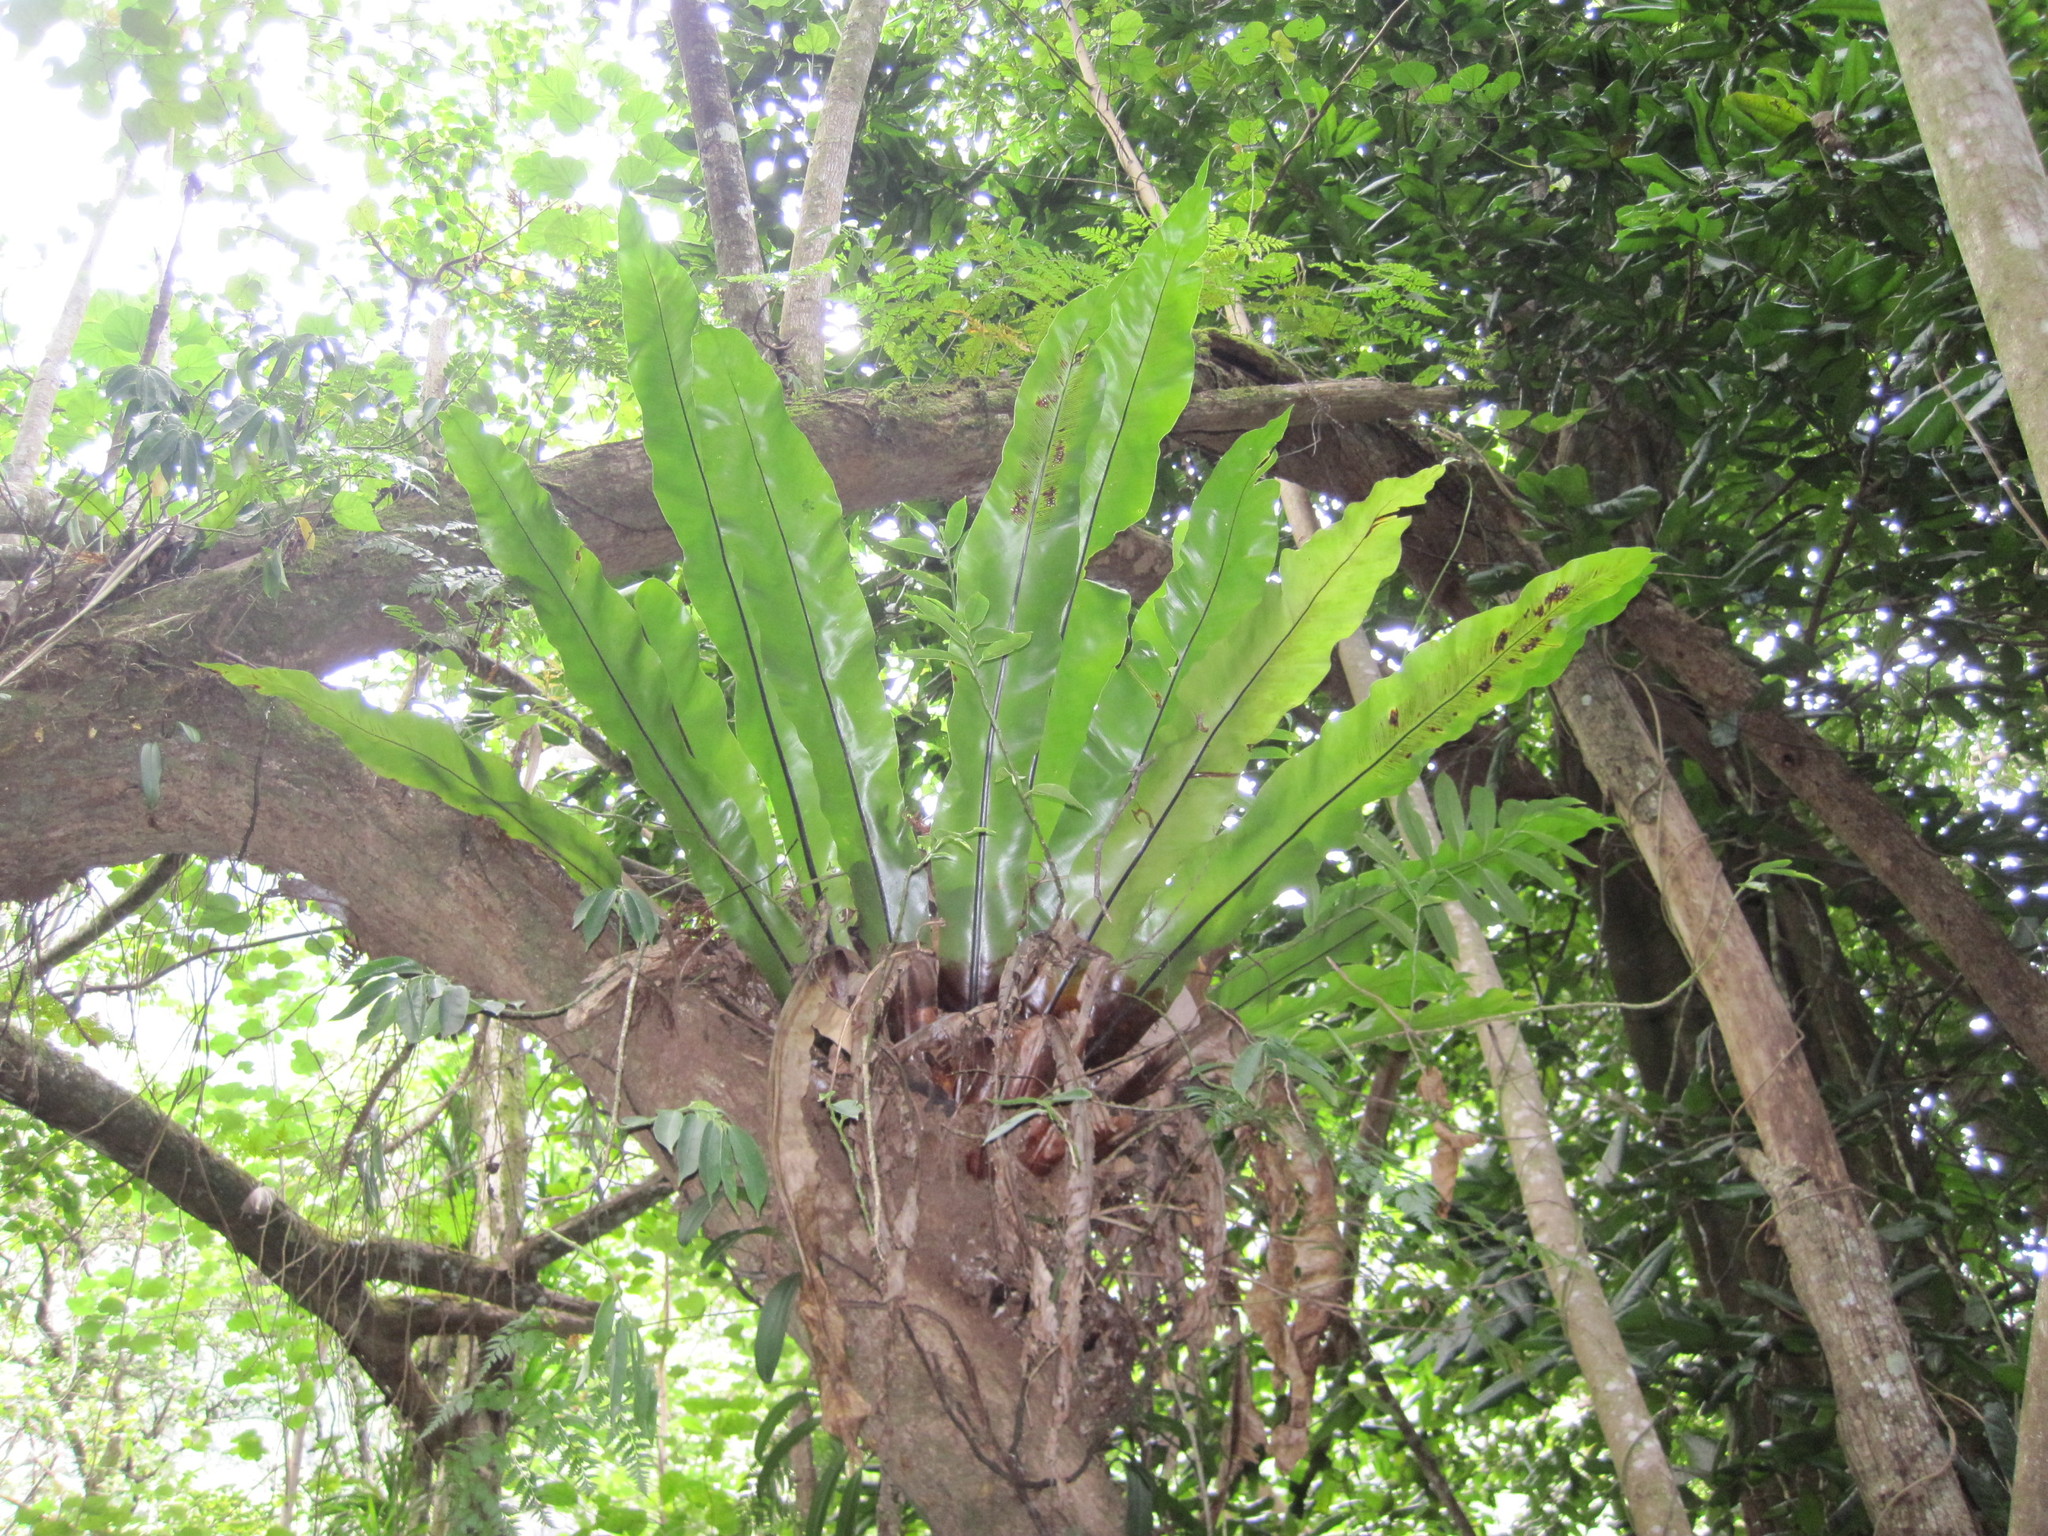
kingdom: Plantae
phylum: Tracheophyta
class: Polypodiopsida
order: Polypodiales
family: Aspleniaceae
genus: Asplenium
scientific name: Asplenium nidus
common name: Bird's-nest fern
